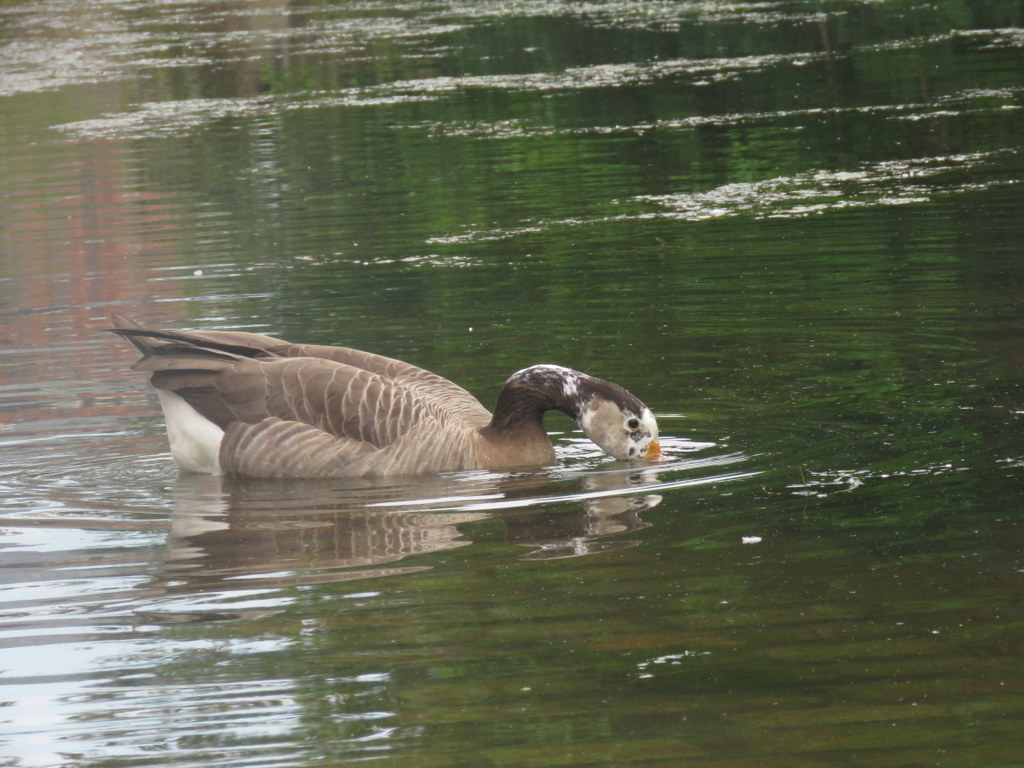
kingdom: Animalia
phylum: Chordata
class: Aves
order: Anseriformes
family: Anatidae
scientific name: Anatidae
